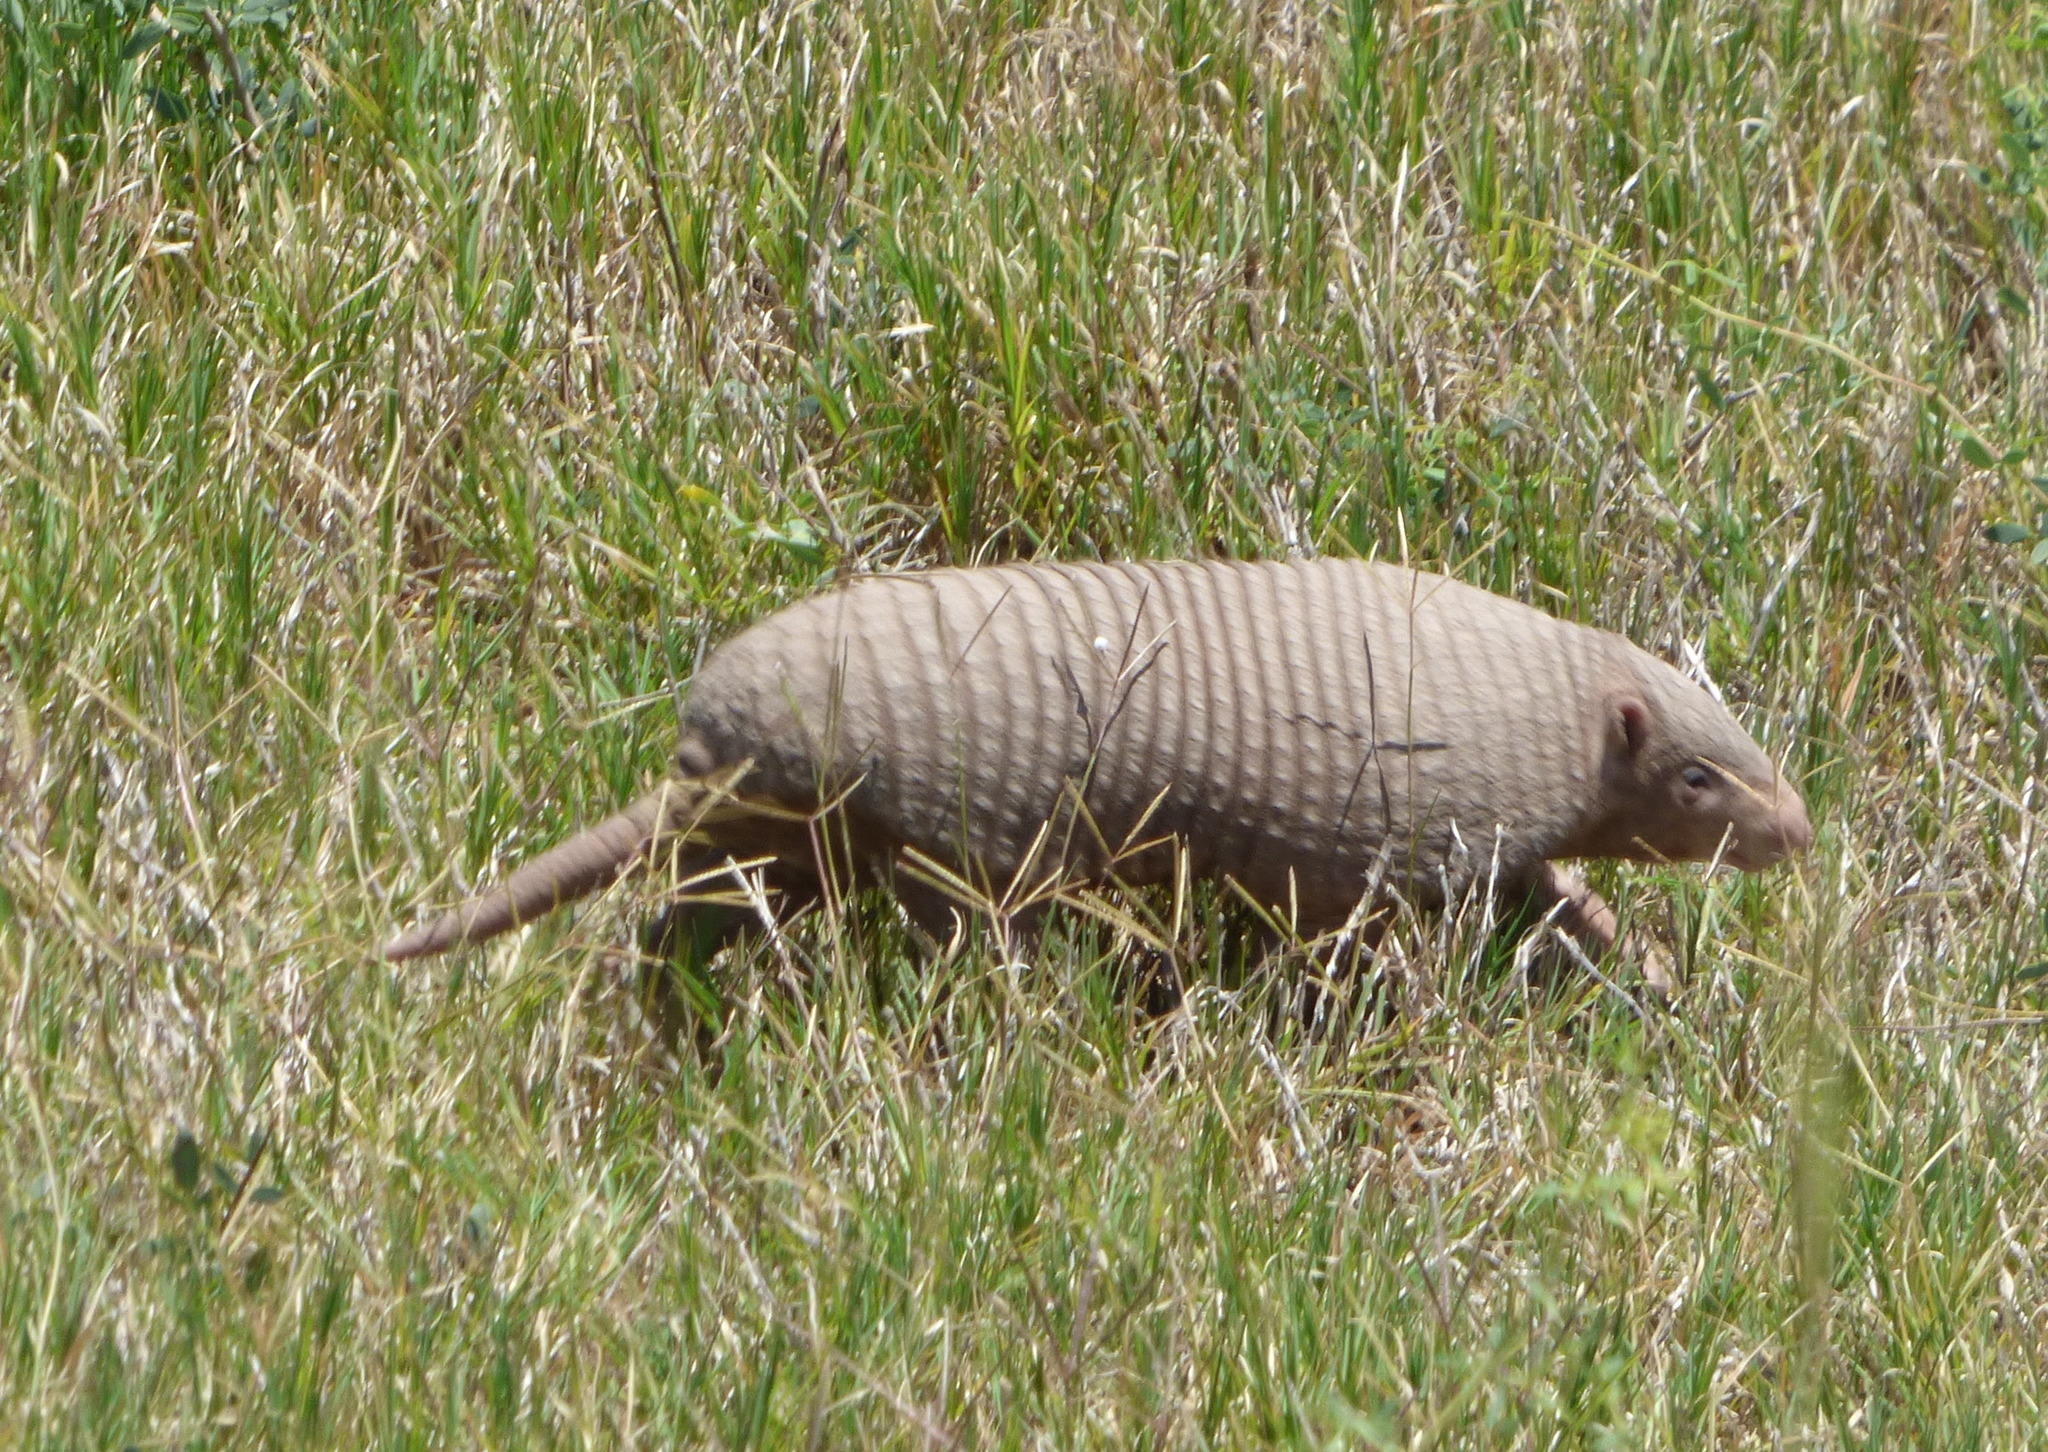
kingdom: Animalia
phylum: Chordata
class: Mammalia
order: Cingulata
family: Dasypodidae
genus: Cabassous
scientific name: Cabassous chacoensis
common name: Chacoan naked-tailed armadillo
